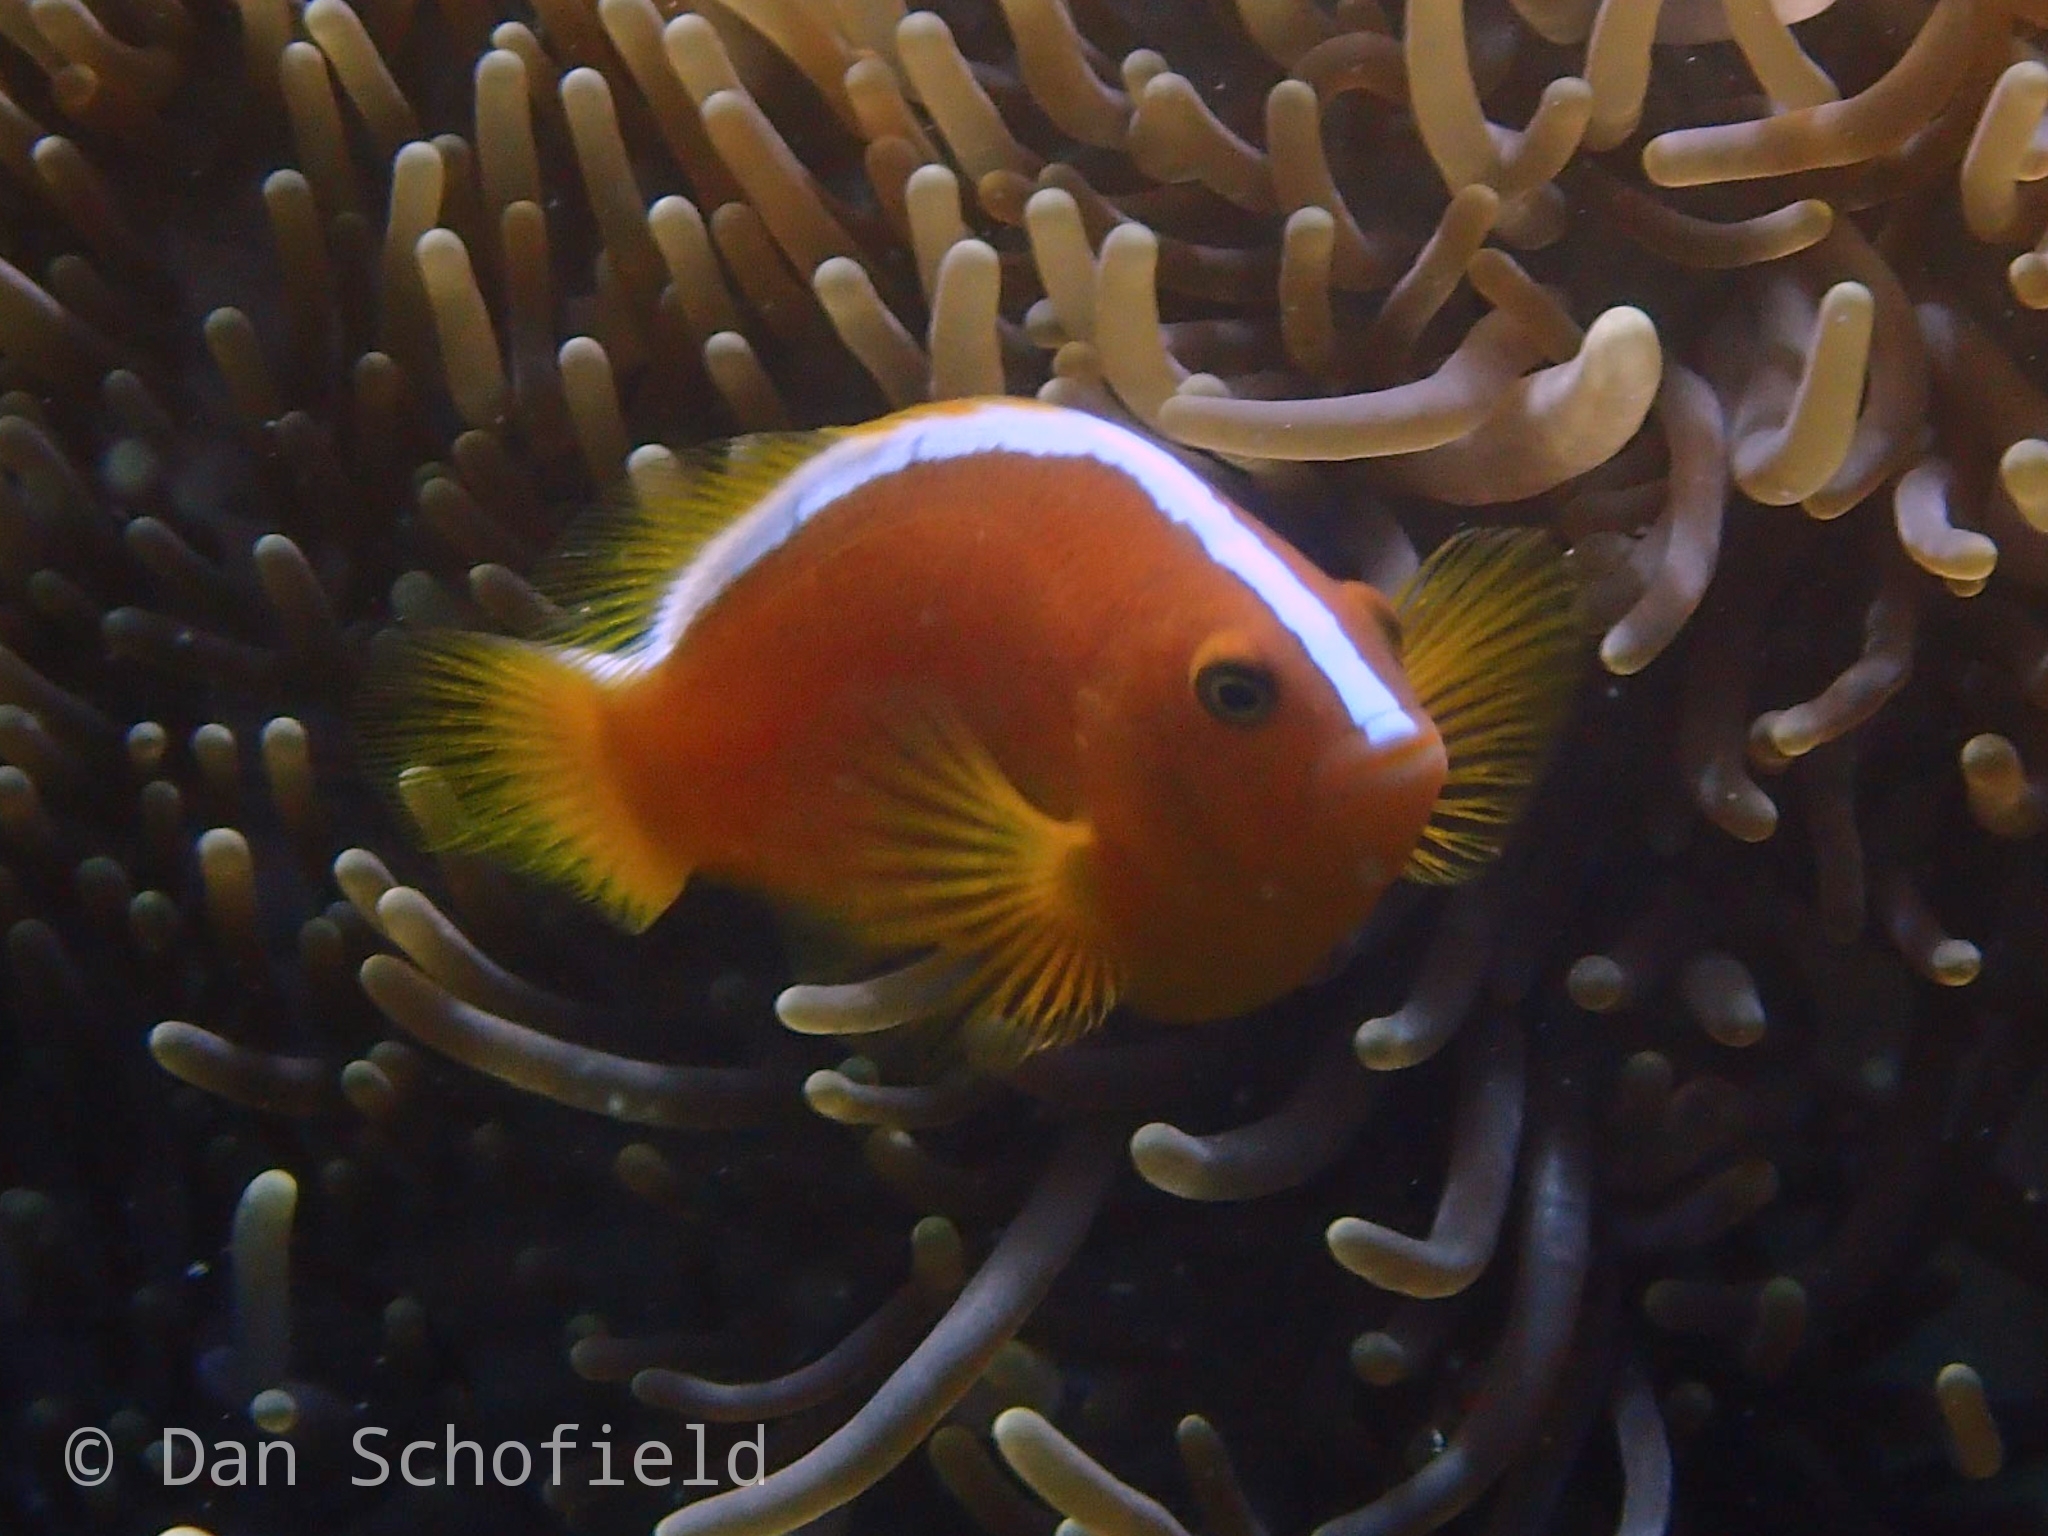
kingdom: Animalia
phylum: Chordata
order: Perciformes
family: Pomacentridae
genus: Amphiprion
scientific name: Amphiprion sandaracinos
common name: Orange anemonefish
